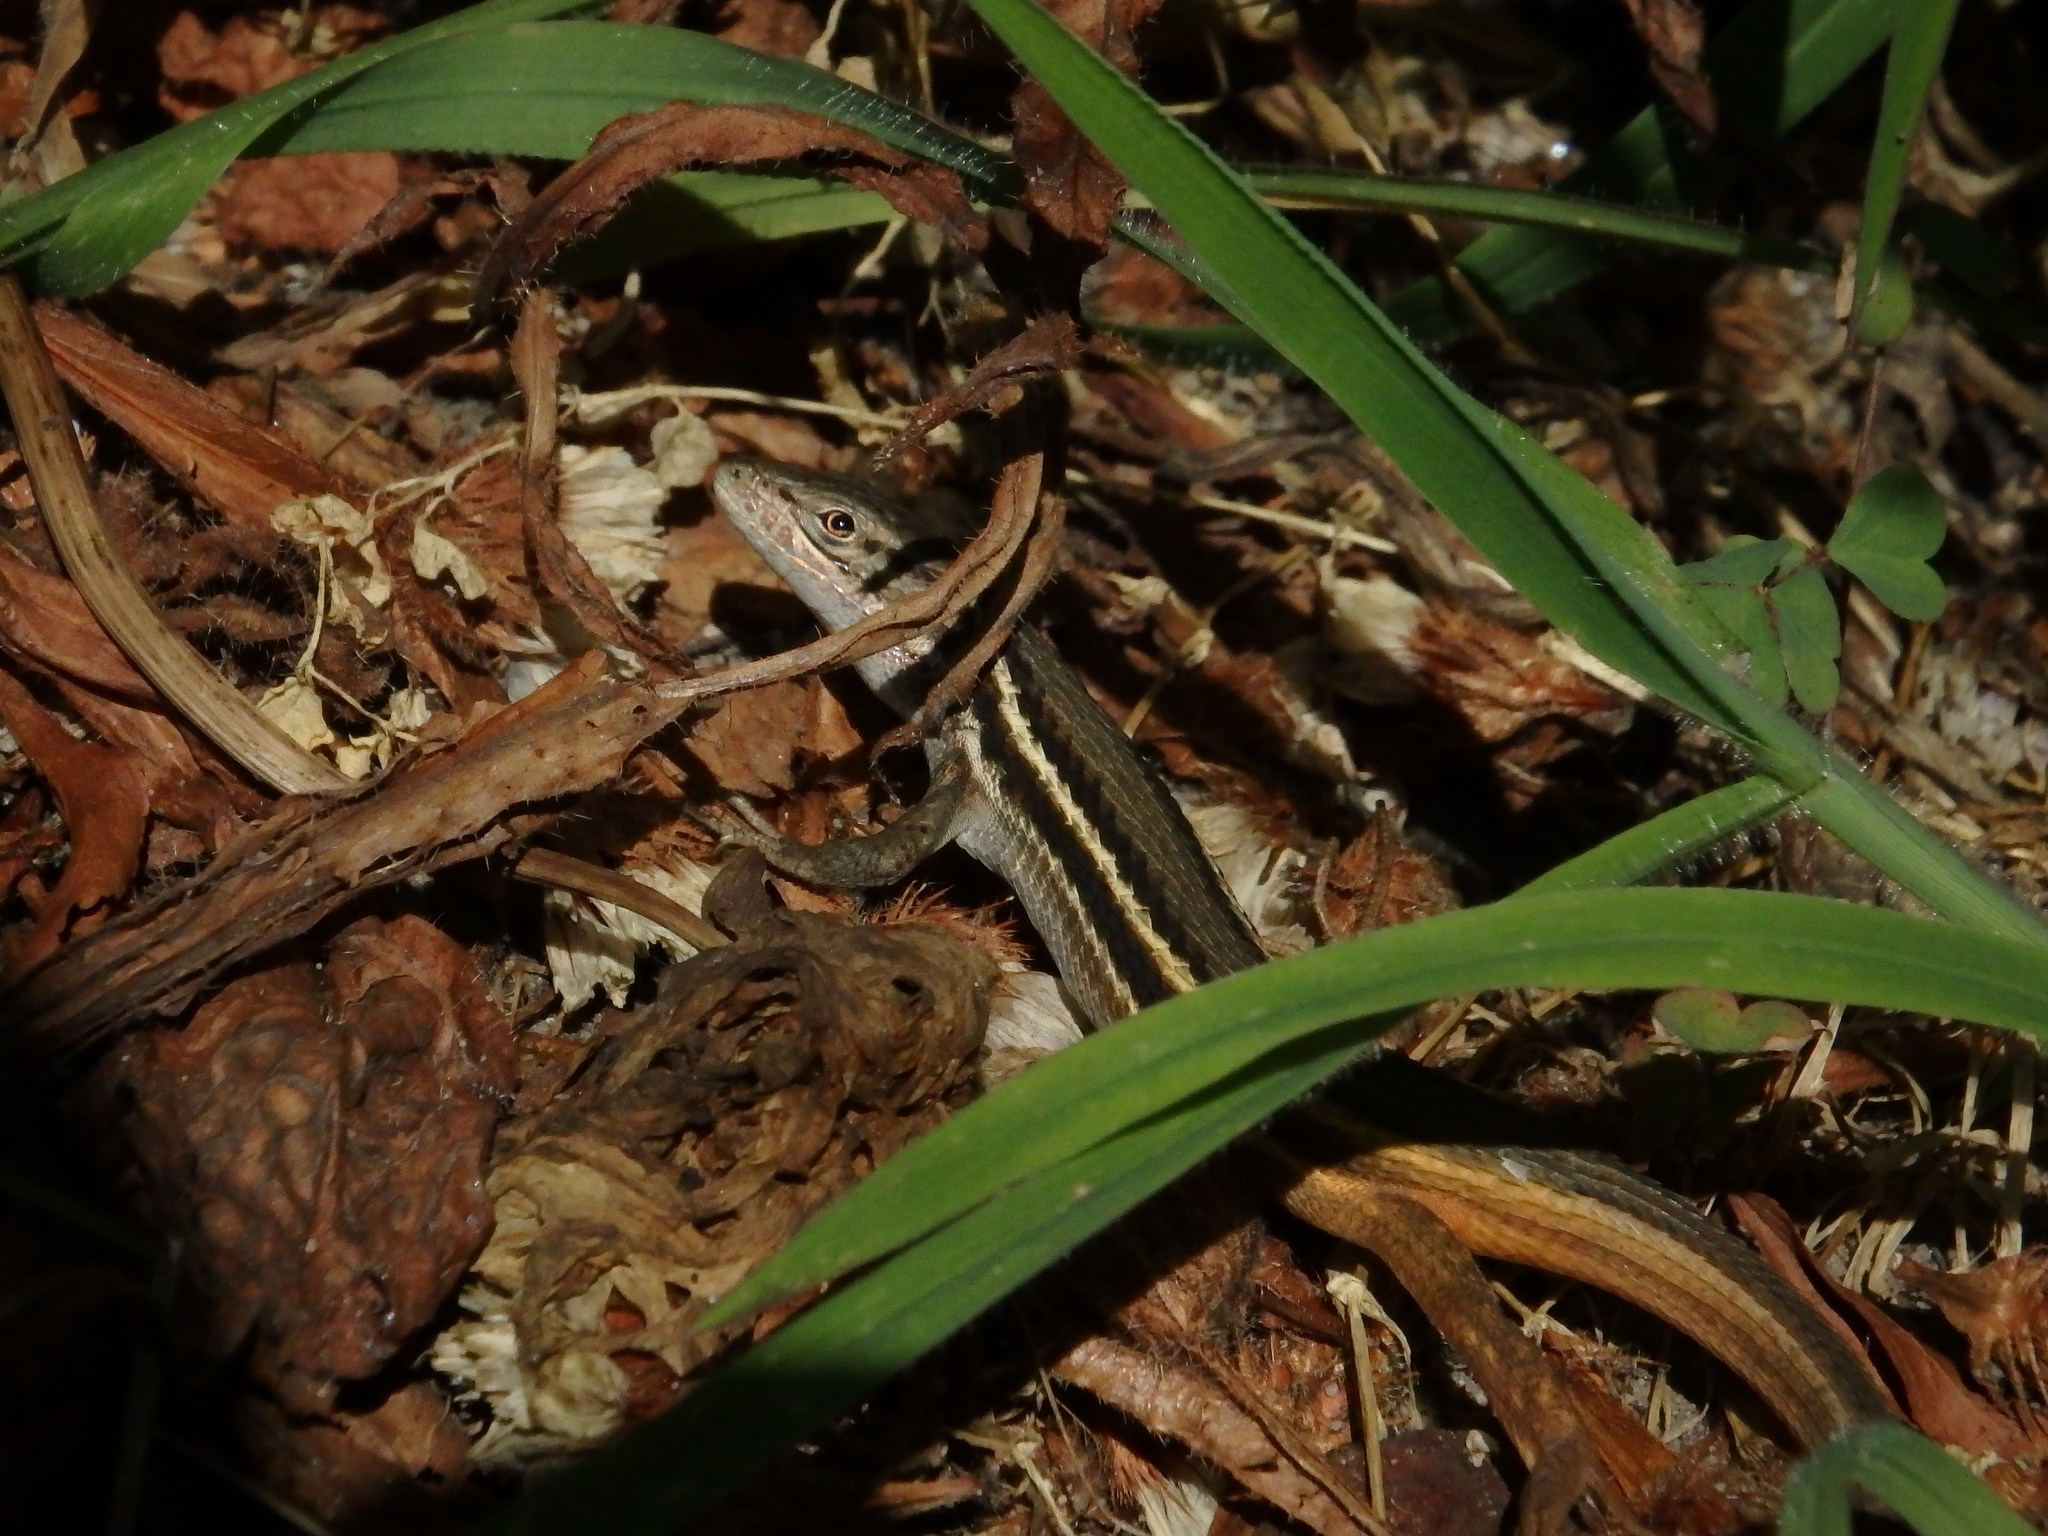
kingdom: Animalia
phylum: Chordata
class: Squamata
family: Lacertidae
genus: Psammodromus
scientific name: Psammodromus algirus
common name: Algerian psammodromus
